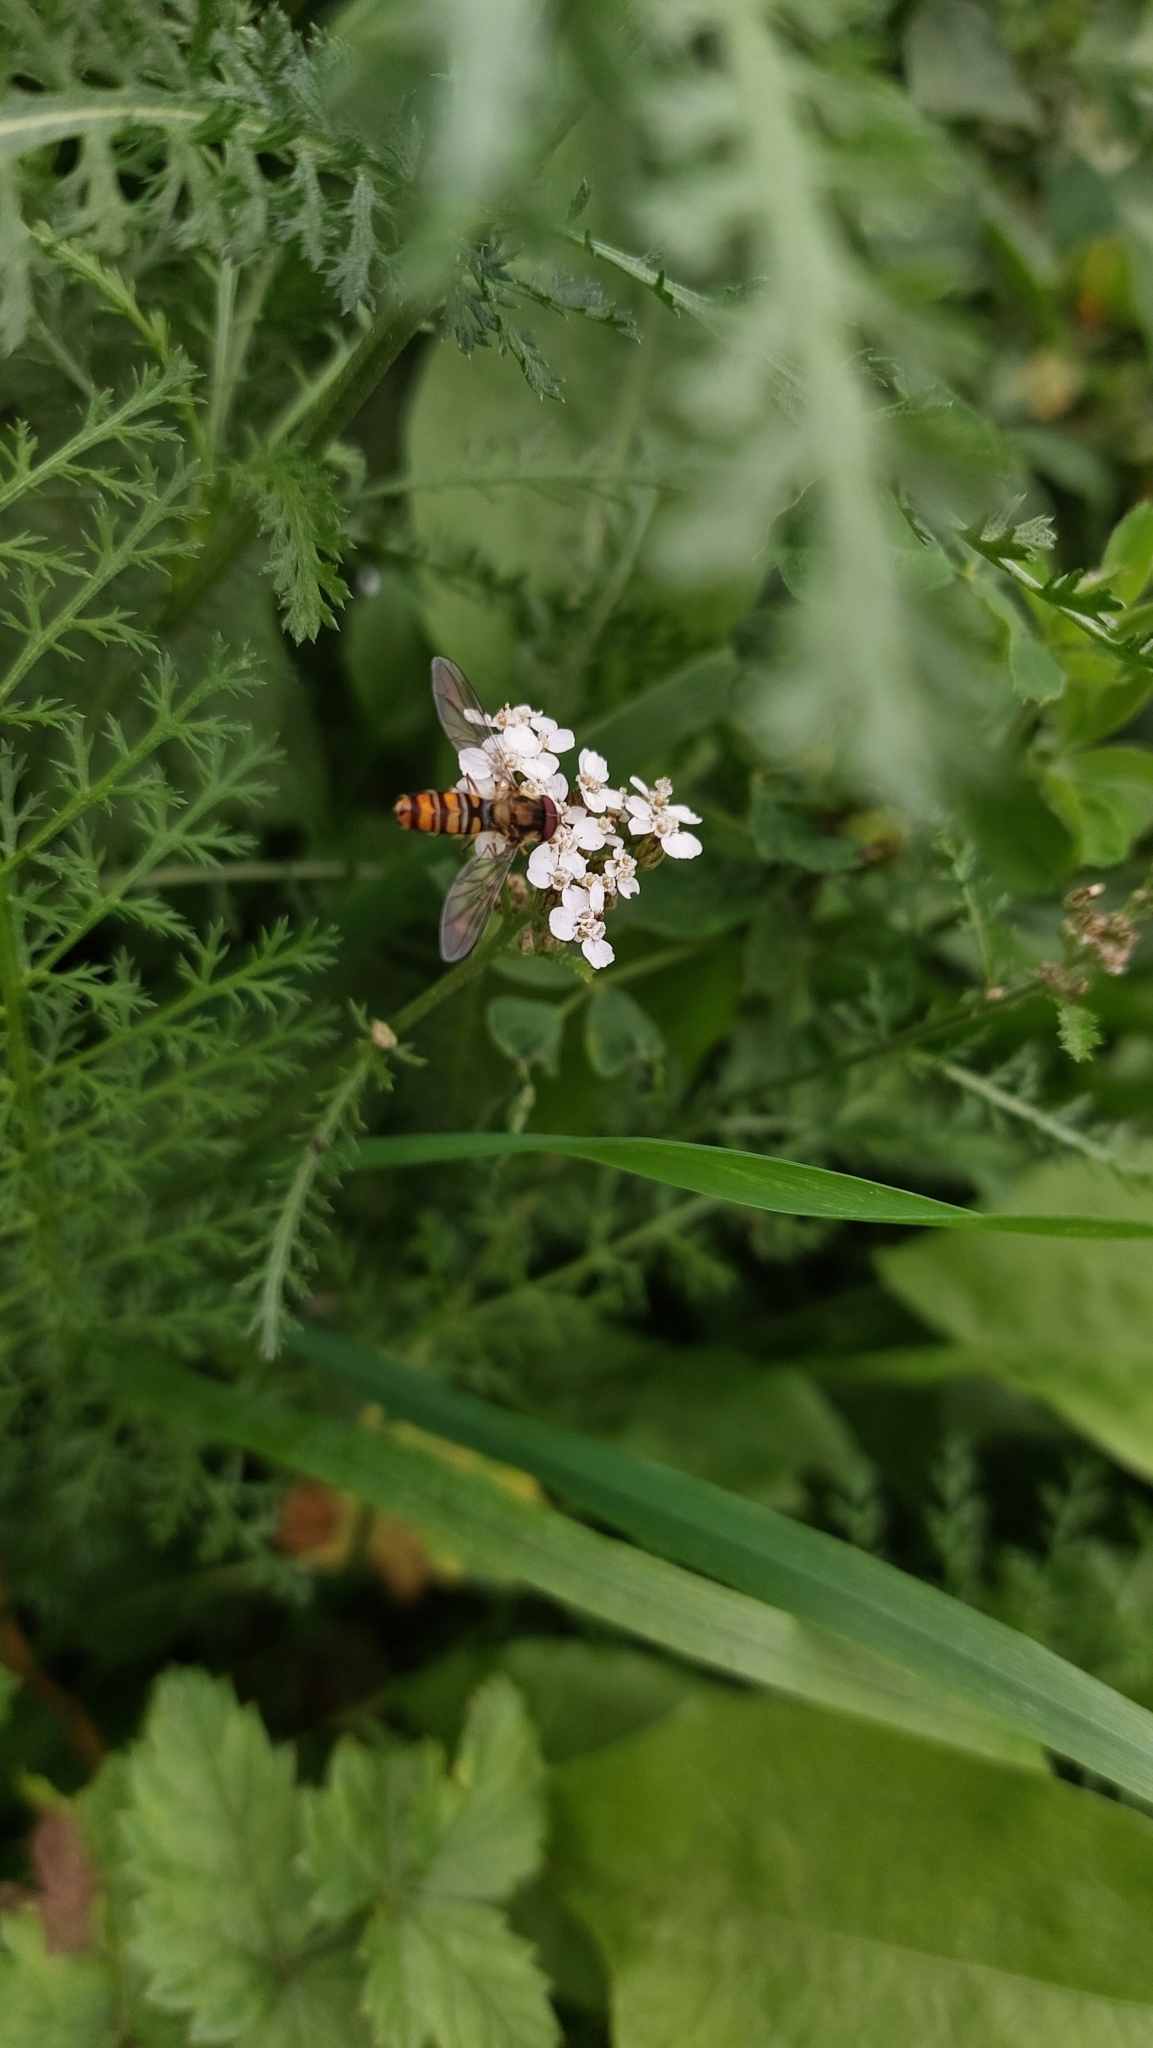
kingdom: Animalia
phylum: Arthropoda
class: Insecta
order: Diptera
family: Syrphidae
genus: Episyrphus
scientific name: Episyrphus balteatus
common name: Marmalade hoverfly
